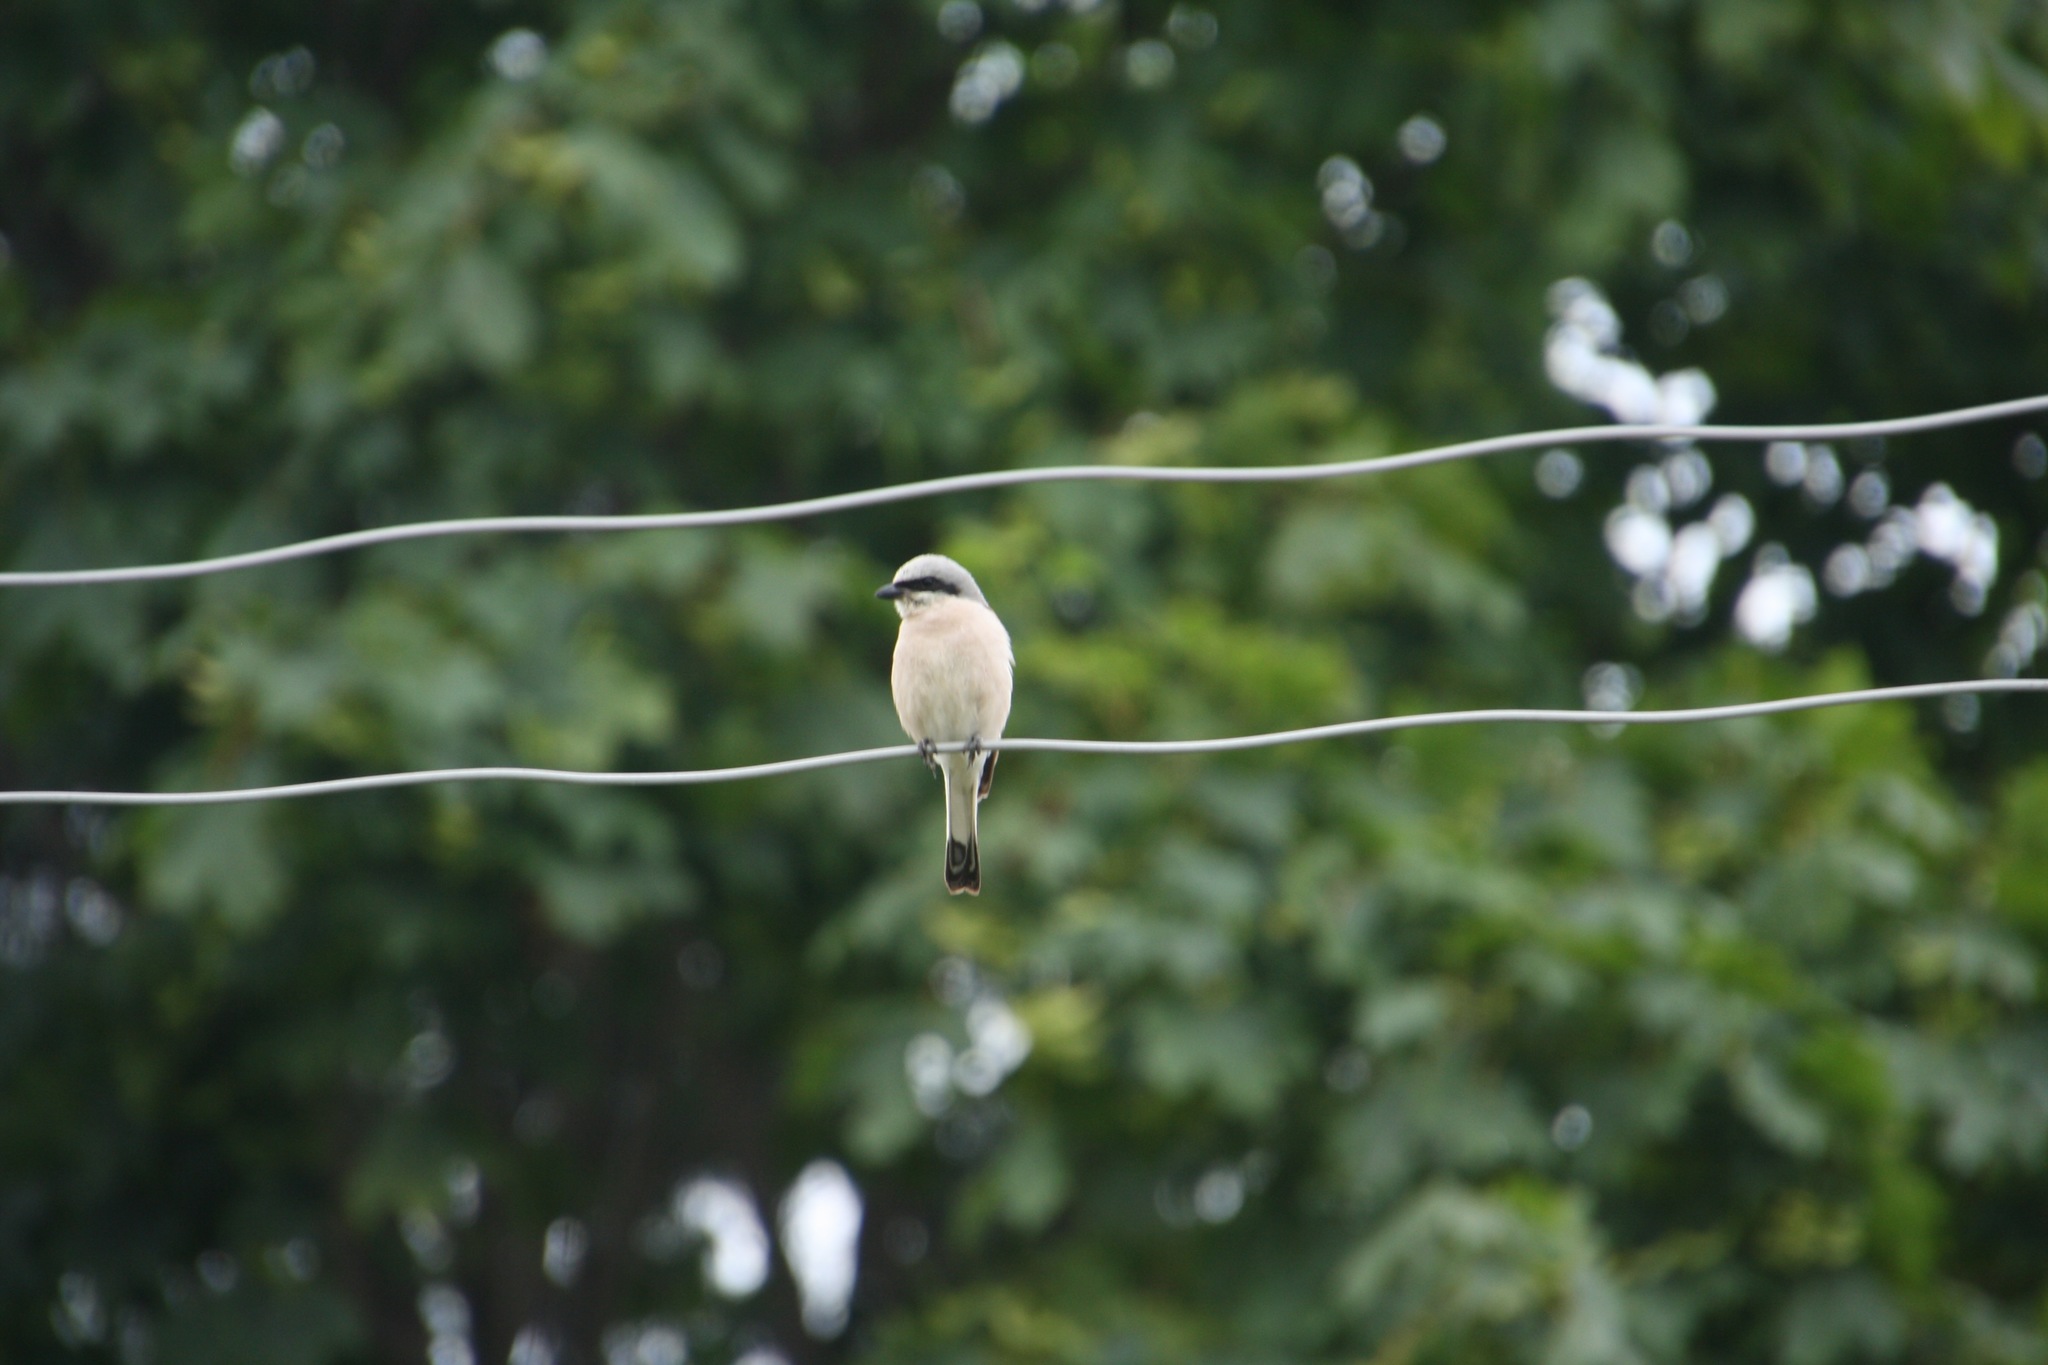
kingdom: Animalia
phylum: Chordata
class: Aves
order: Passeriformes
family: Laniidae
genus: Lanius
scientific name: Lanius collurio
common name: Red-backed shrike
